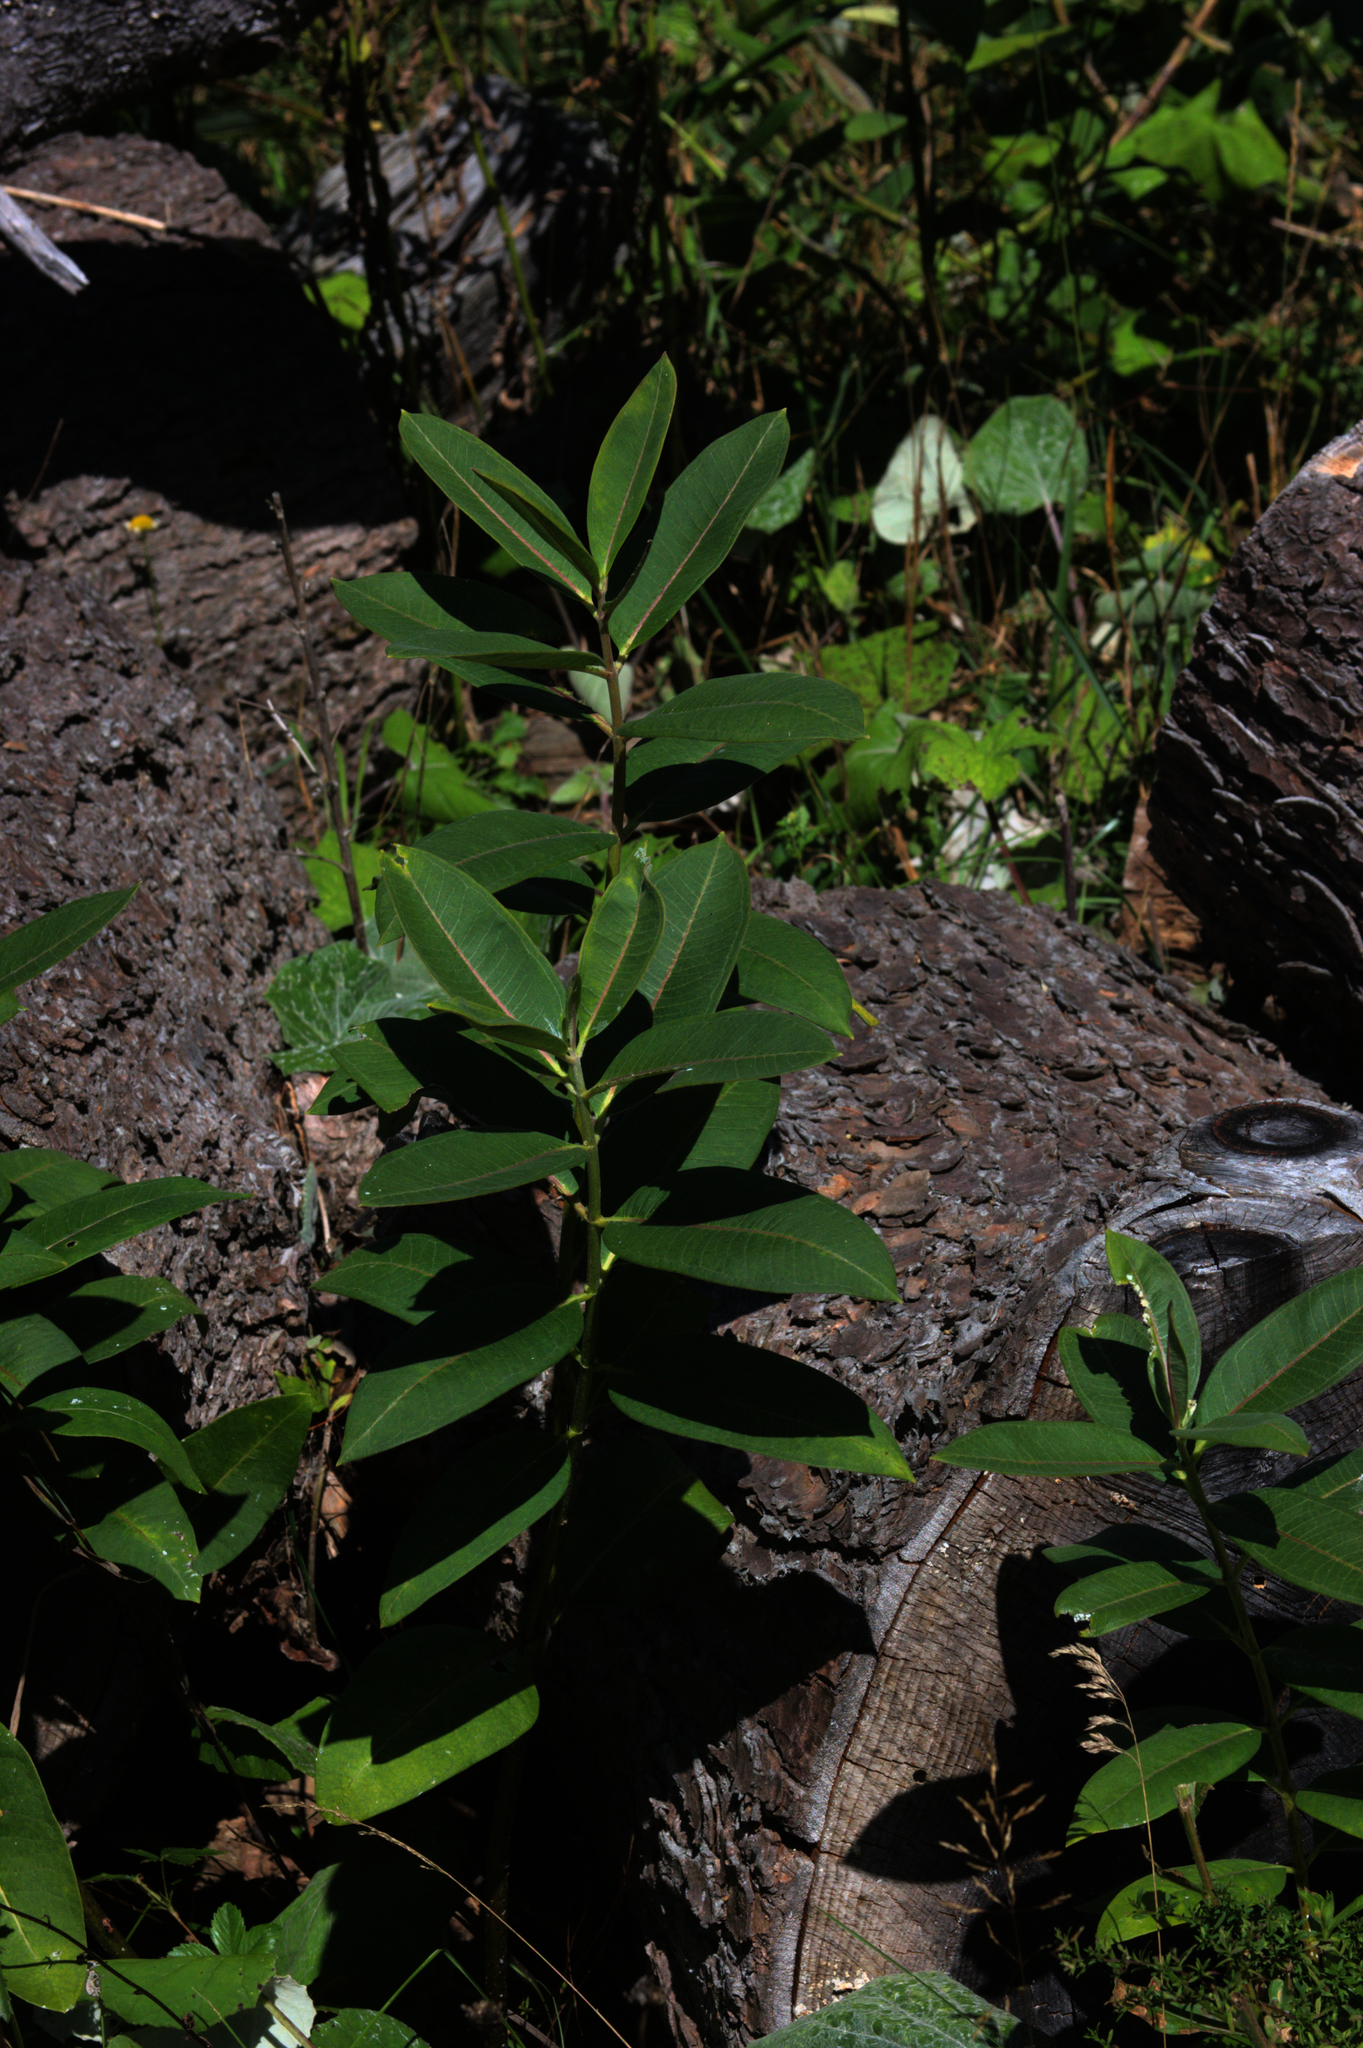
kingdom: Plantae
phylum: Tracheophyta
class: Magnoliopsida
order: Gentianales
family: Apocynaceae
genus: Asclepias
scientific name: Asclepias syriaca
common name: Common milkweed
